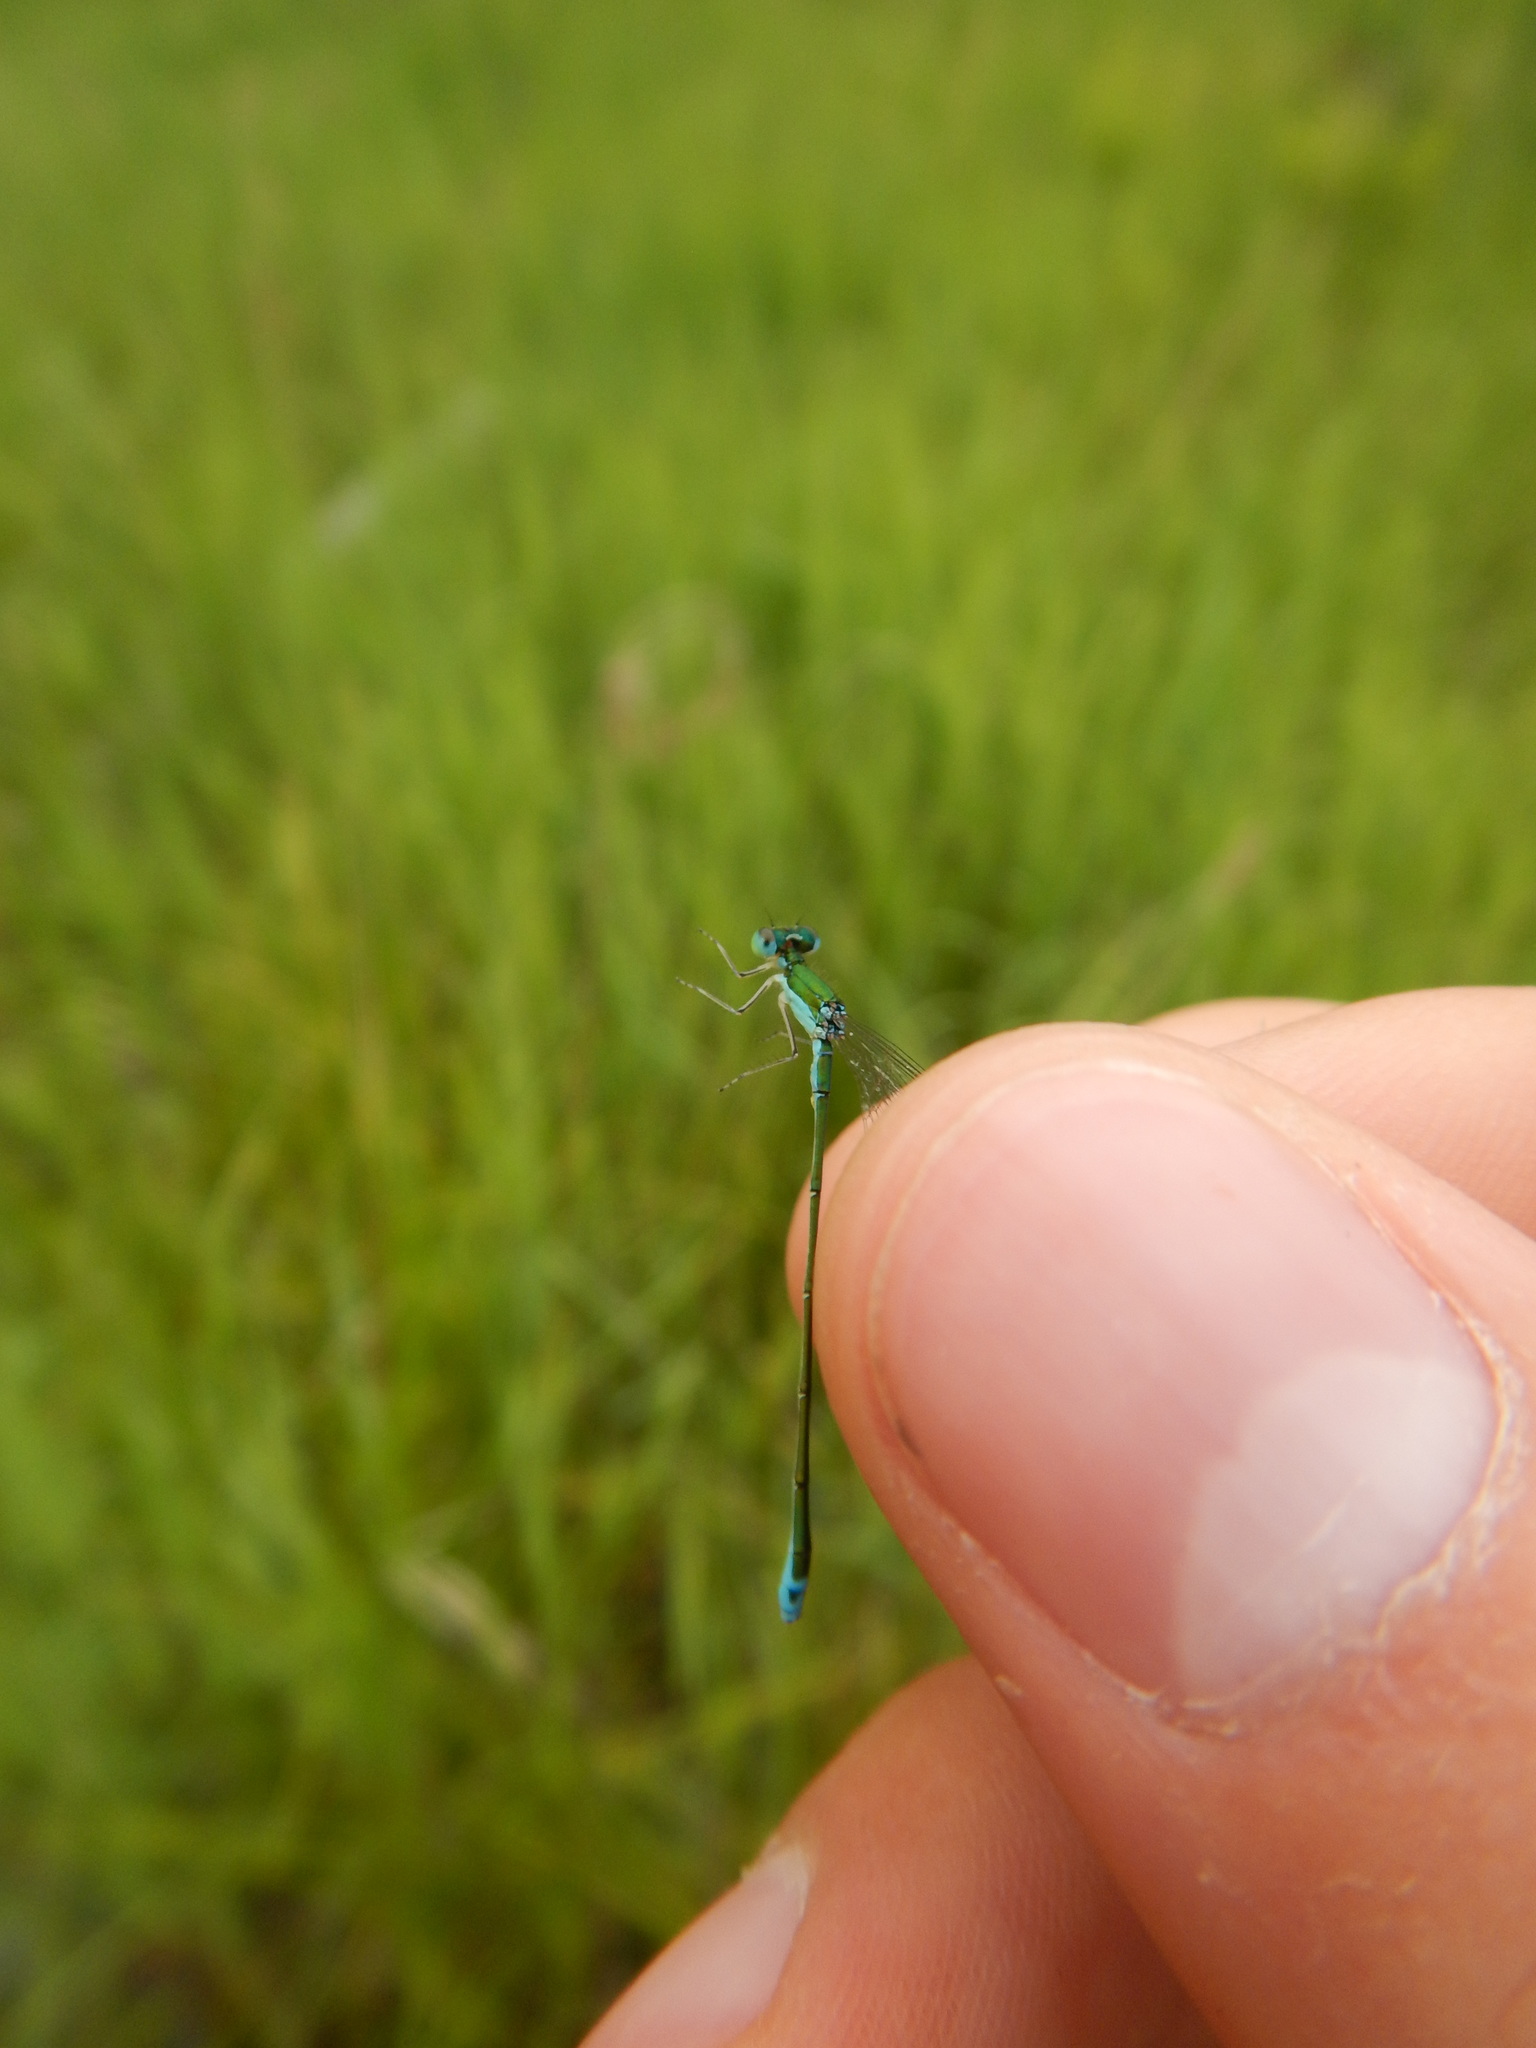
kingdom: Animalia
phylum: Arthropoda
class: Insecta
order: Odonata
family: Coenagrionidae
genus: Nehalennia
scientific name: Nehalennia irene
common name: Sedge sprite
